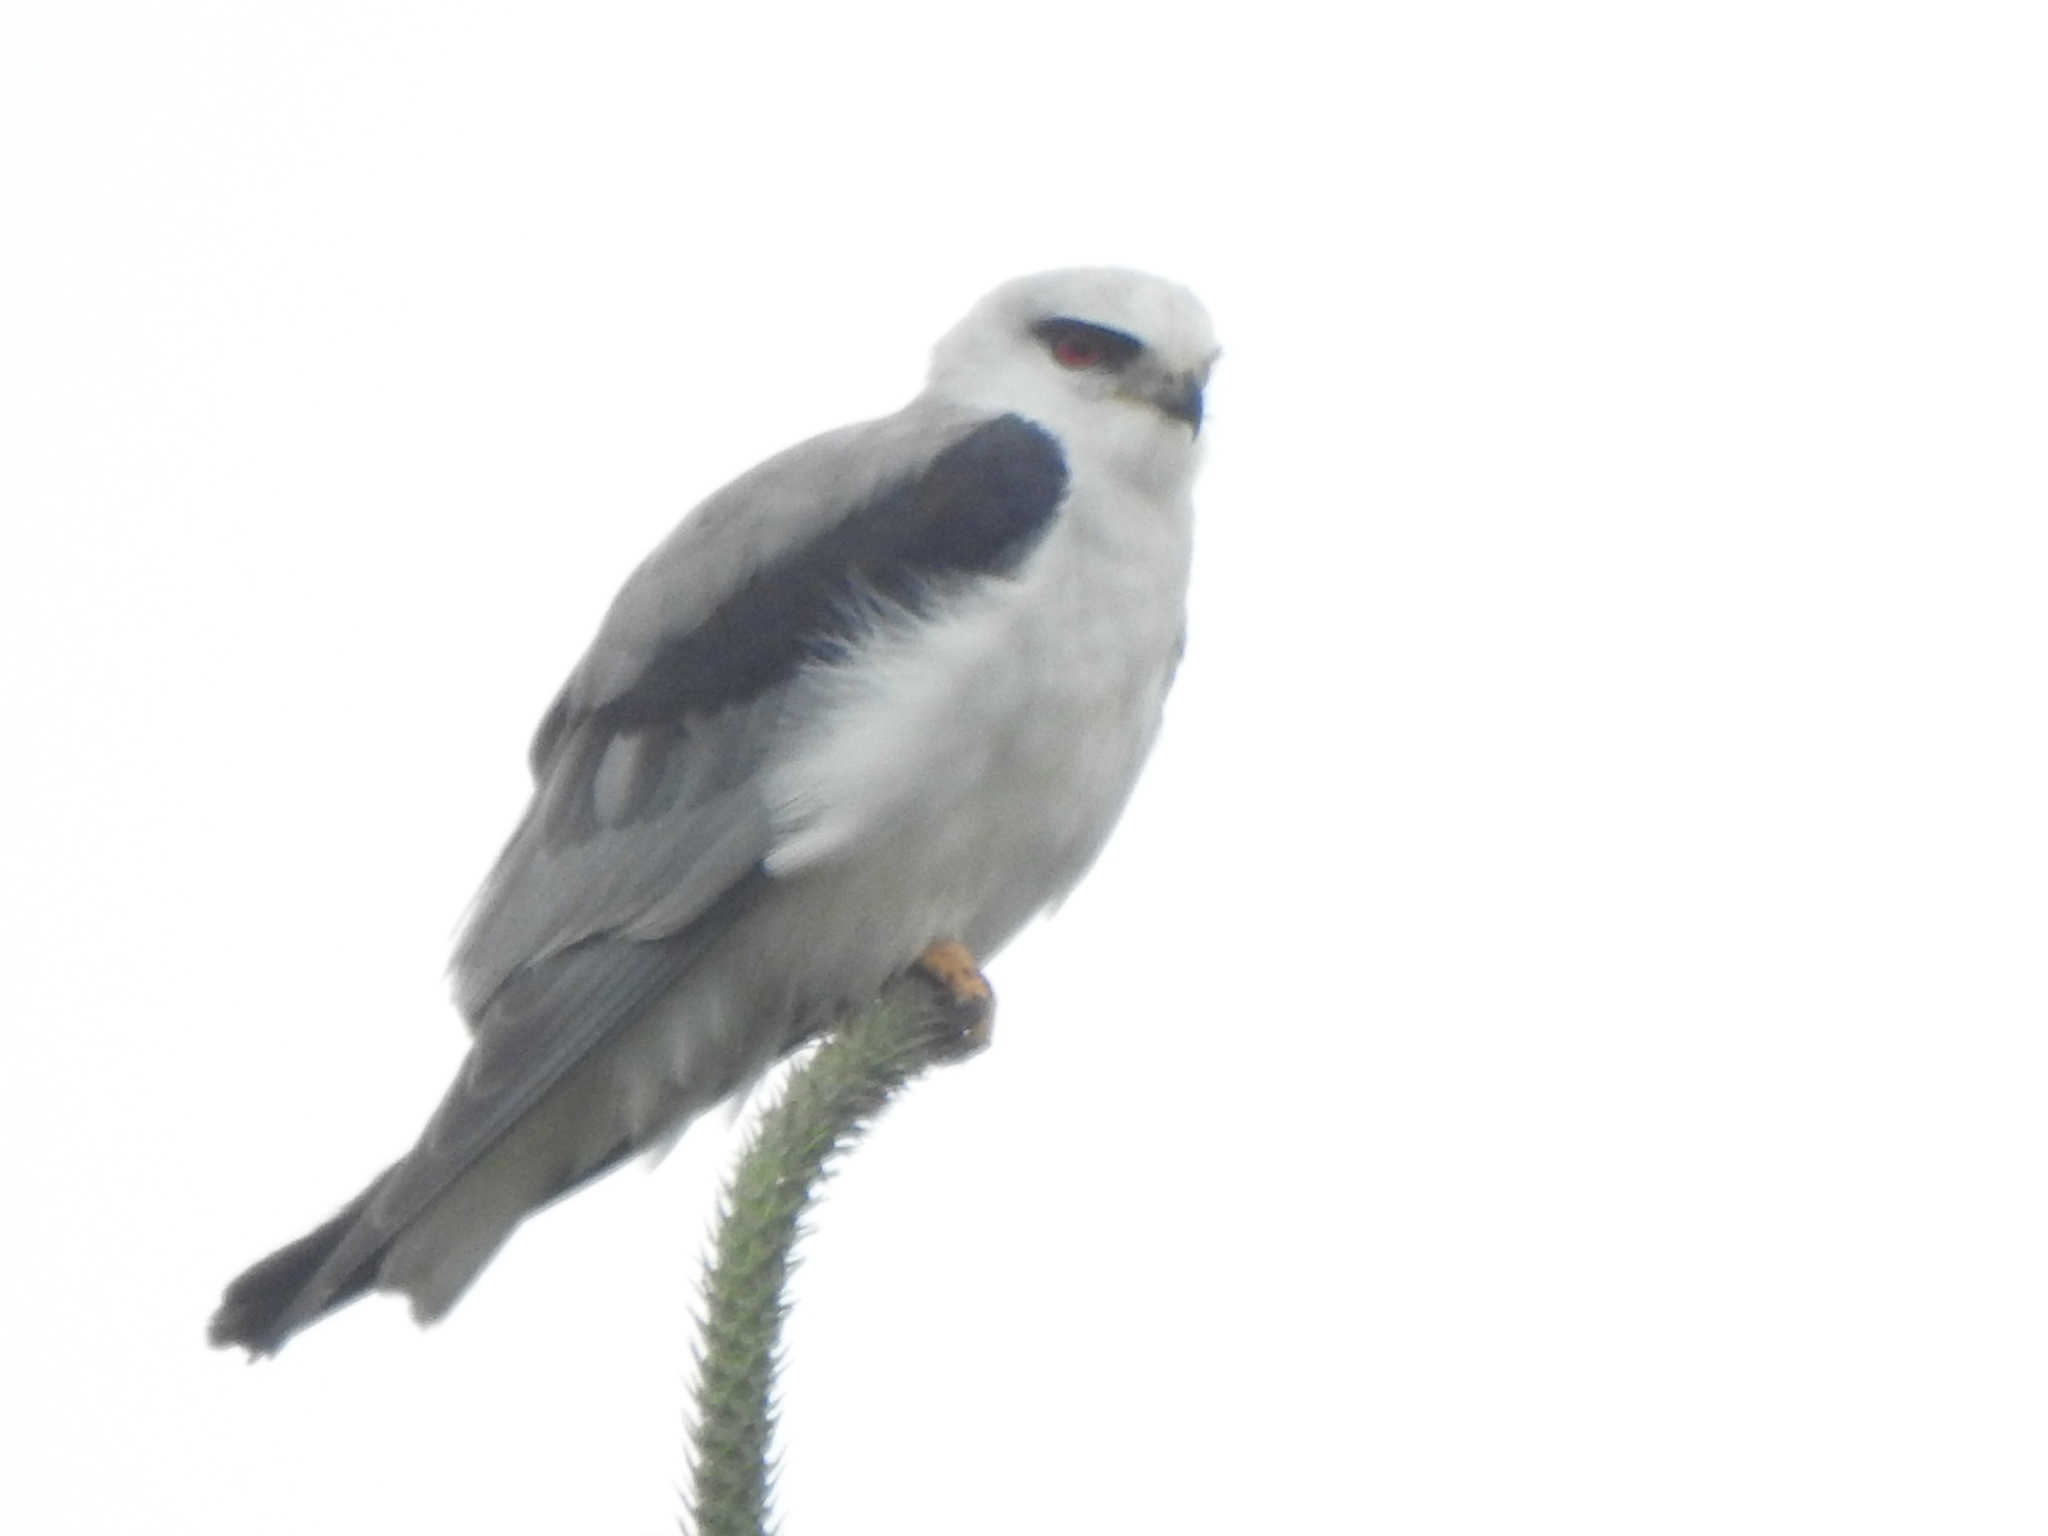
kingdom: Animalia
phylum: Chordata
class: Aves
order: Accipitriformes
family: Accipitridae
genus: Elanus
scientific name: Elanus caeruleus
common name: Black-winged kite
